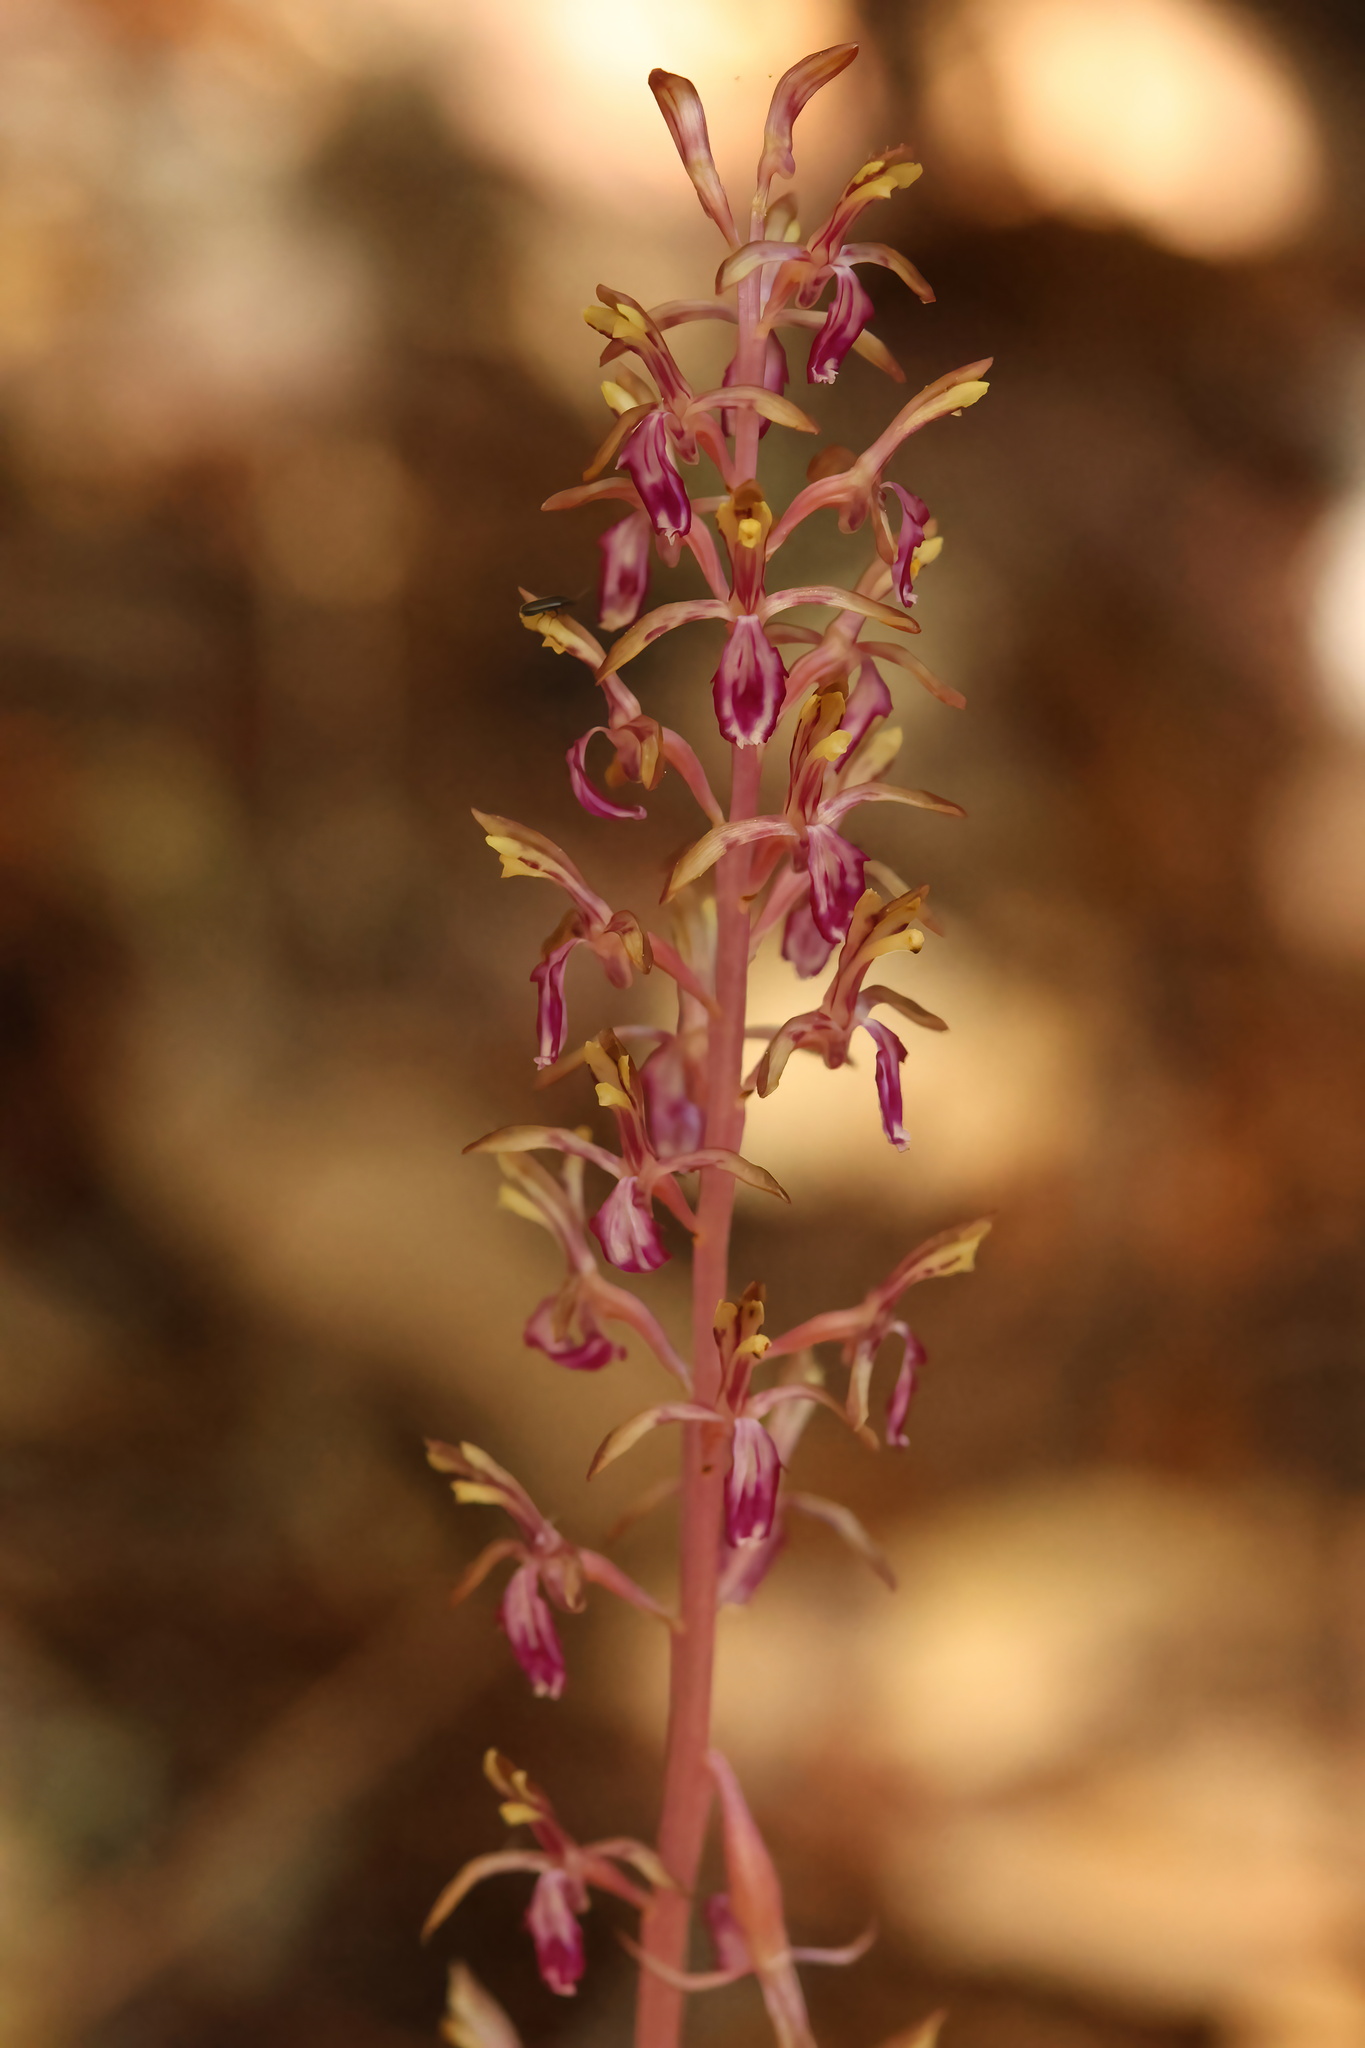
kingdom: Plantae
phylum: Tracheophyta
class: Liliopsida
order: Asparagales
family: Orchidaceae
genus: Corallorhiza
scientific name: Corallorhiza mertensiana
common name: Pacific coralroot
